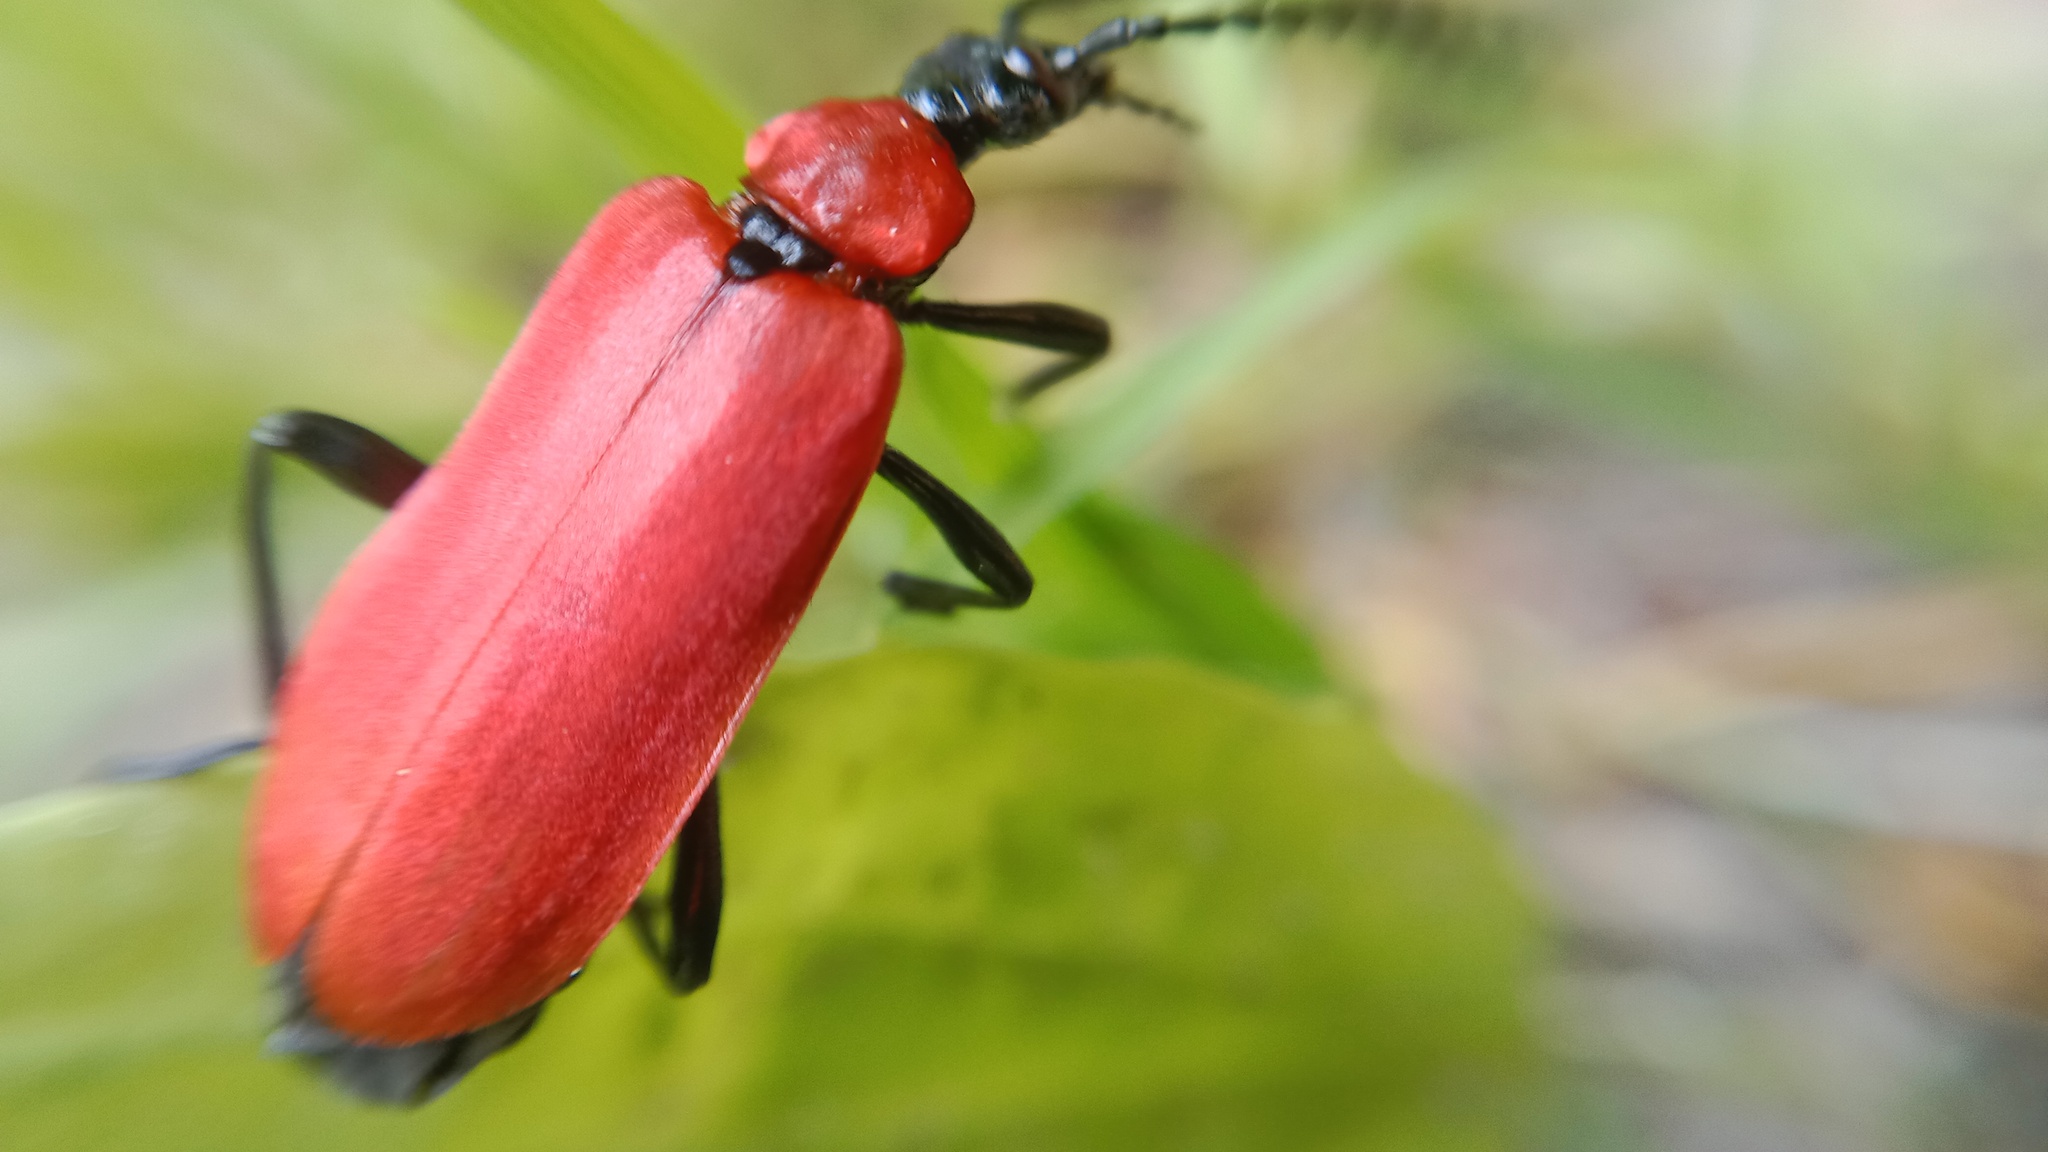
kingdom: Animalia
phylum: Arthropoda
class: Insecta
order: Coleoptera
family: Pyrochroidae
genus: Pyrochroa
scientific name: Pyrochroa coccinea
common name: Black-headed cardinal beetle
